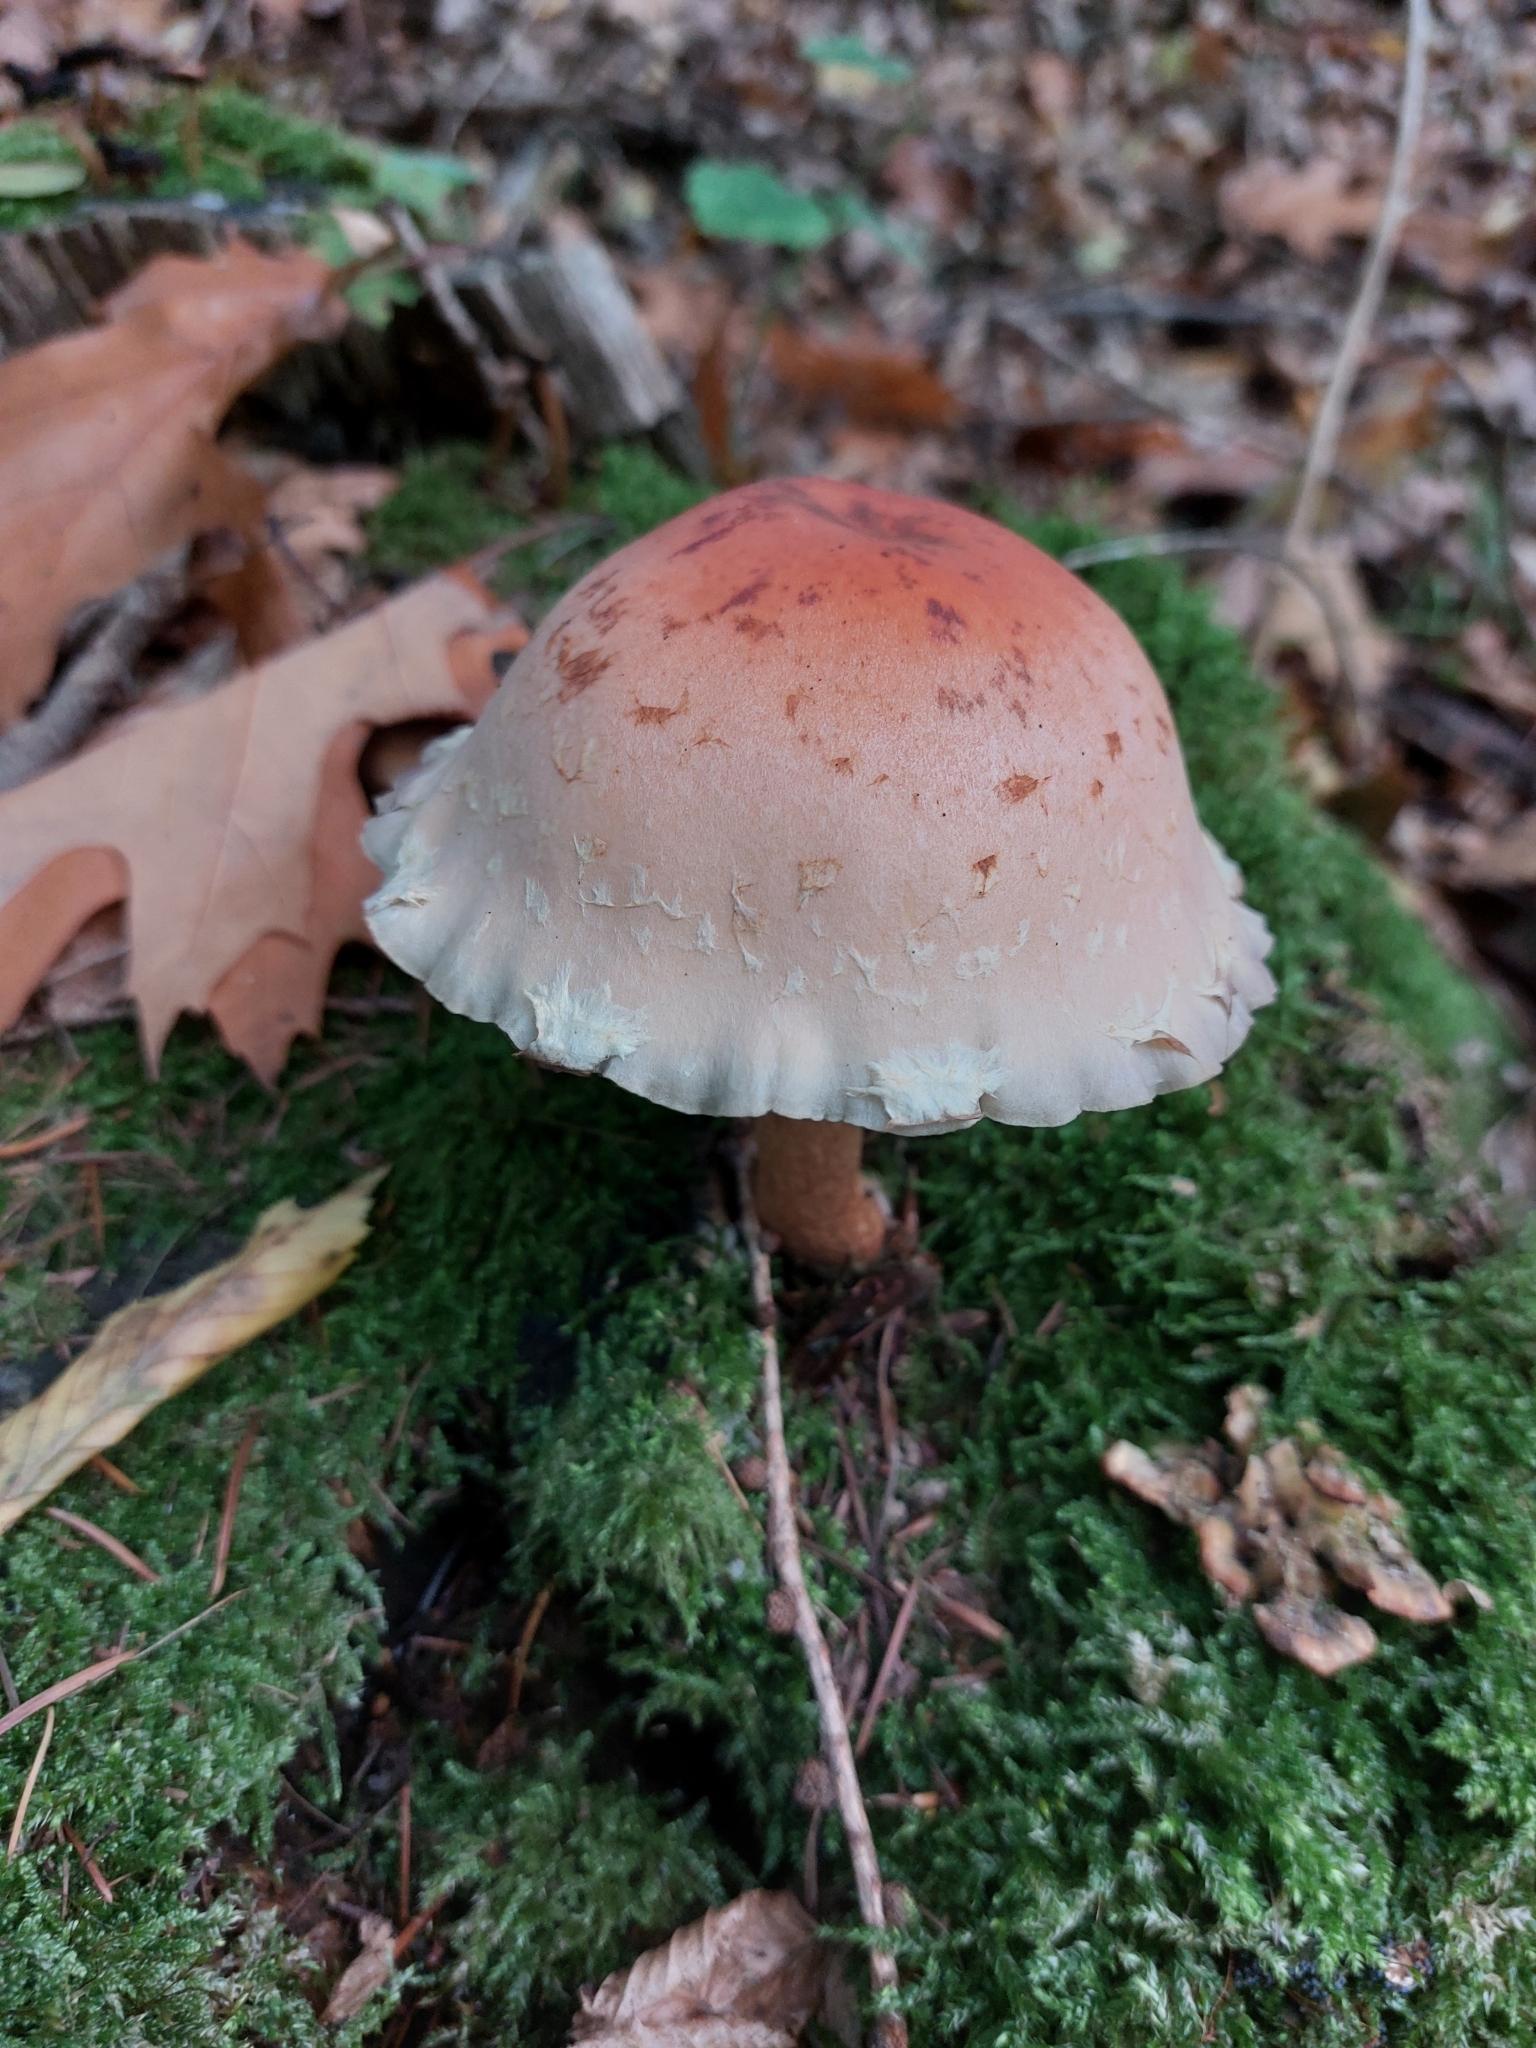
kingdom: Fungi
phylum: Basidiomycota
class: Agaricomycetes
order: Agaricales
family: Strophariaceae
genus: Hypholoma
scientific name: Hypholoma lateritium
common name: Brick caps
